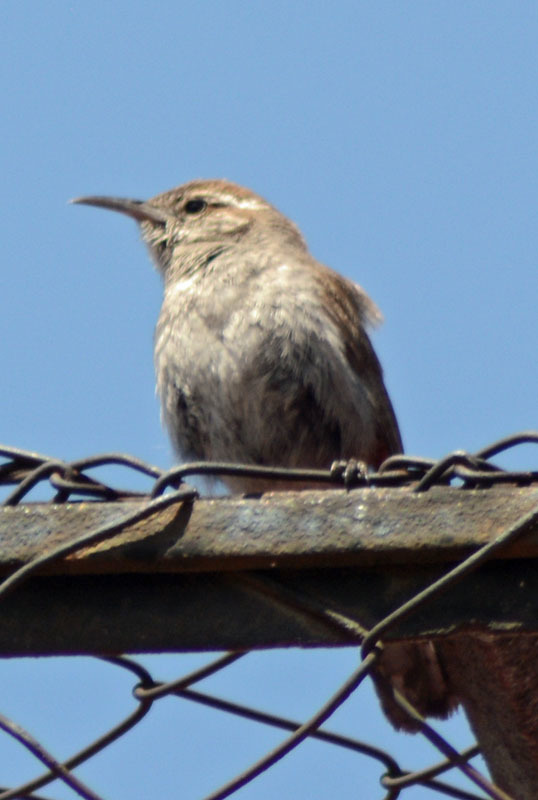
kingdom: Animalia
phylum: Chordata
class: Aves
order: Passeriformes
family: Troglodytidae
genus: Thryomanes
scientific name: Thryomanes bewickii
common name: Bewick's wren
